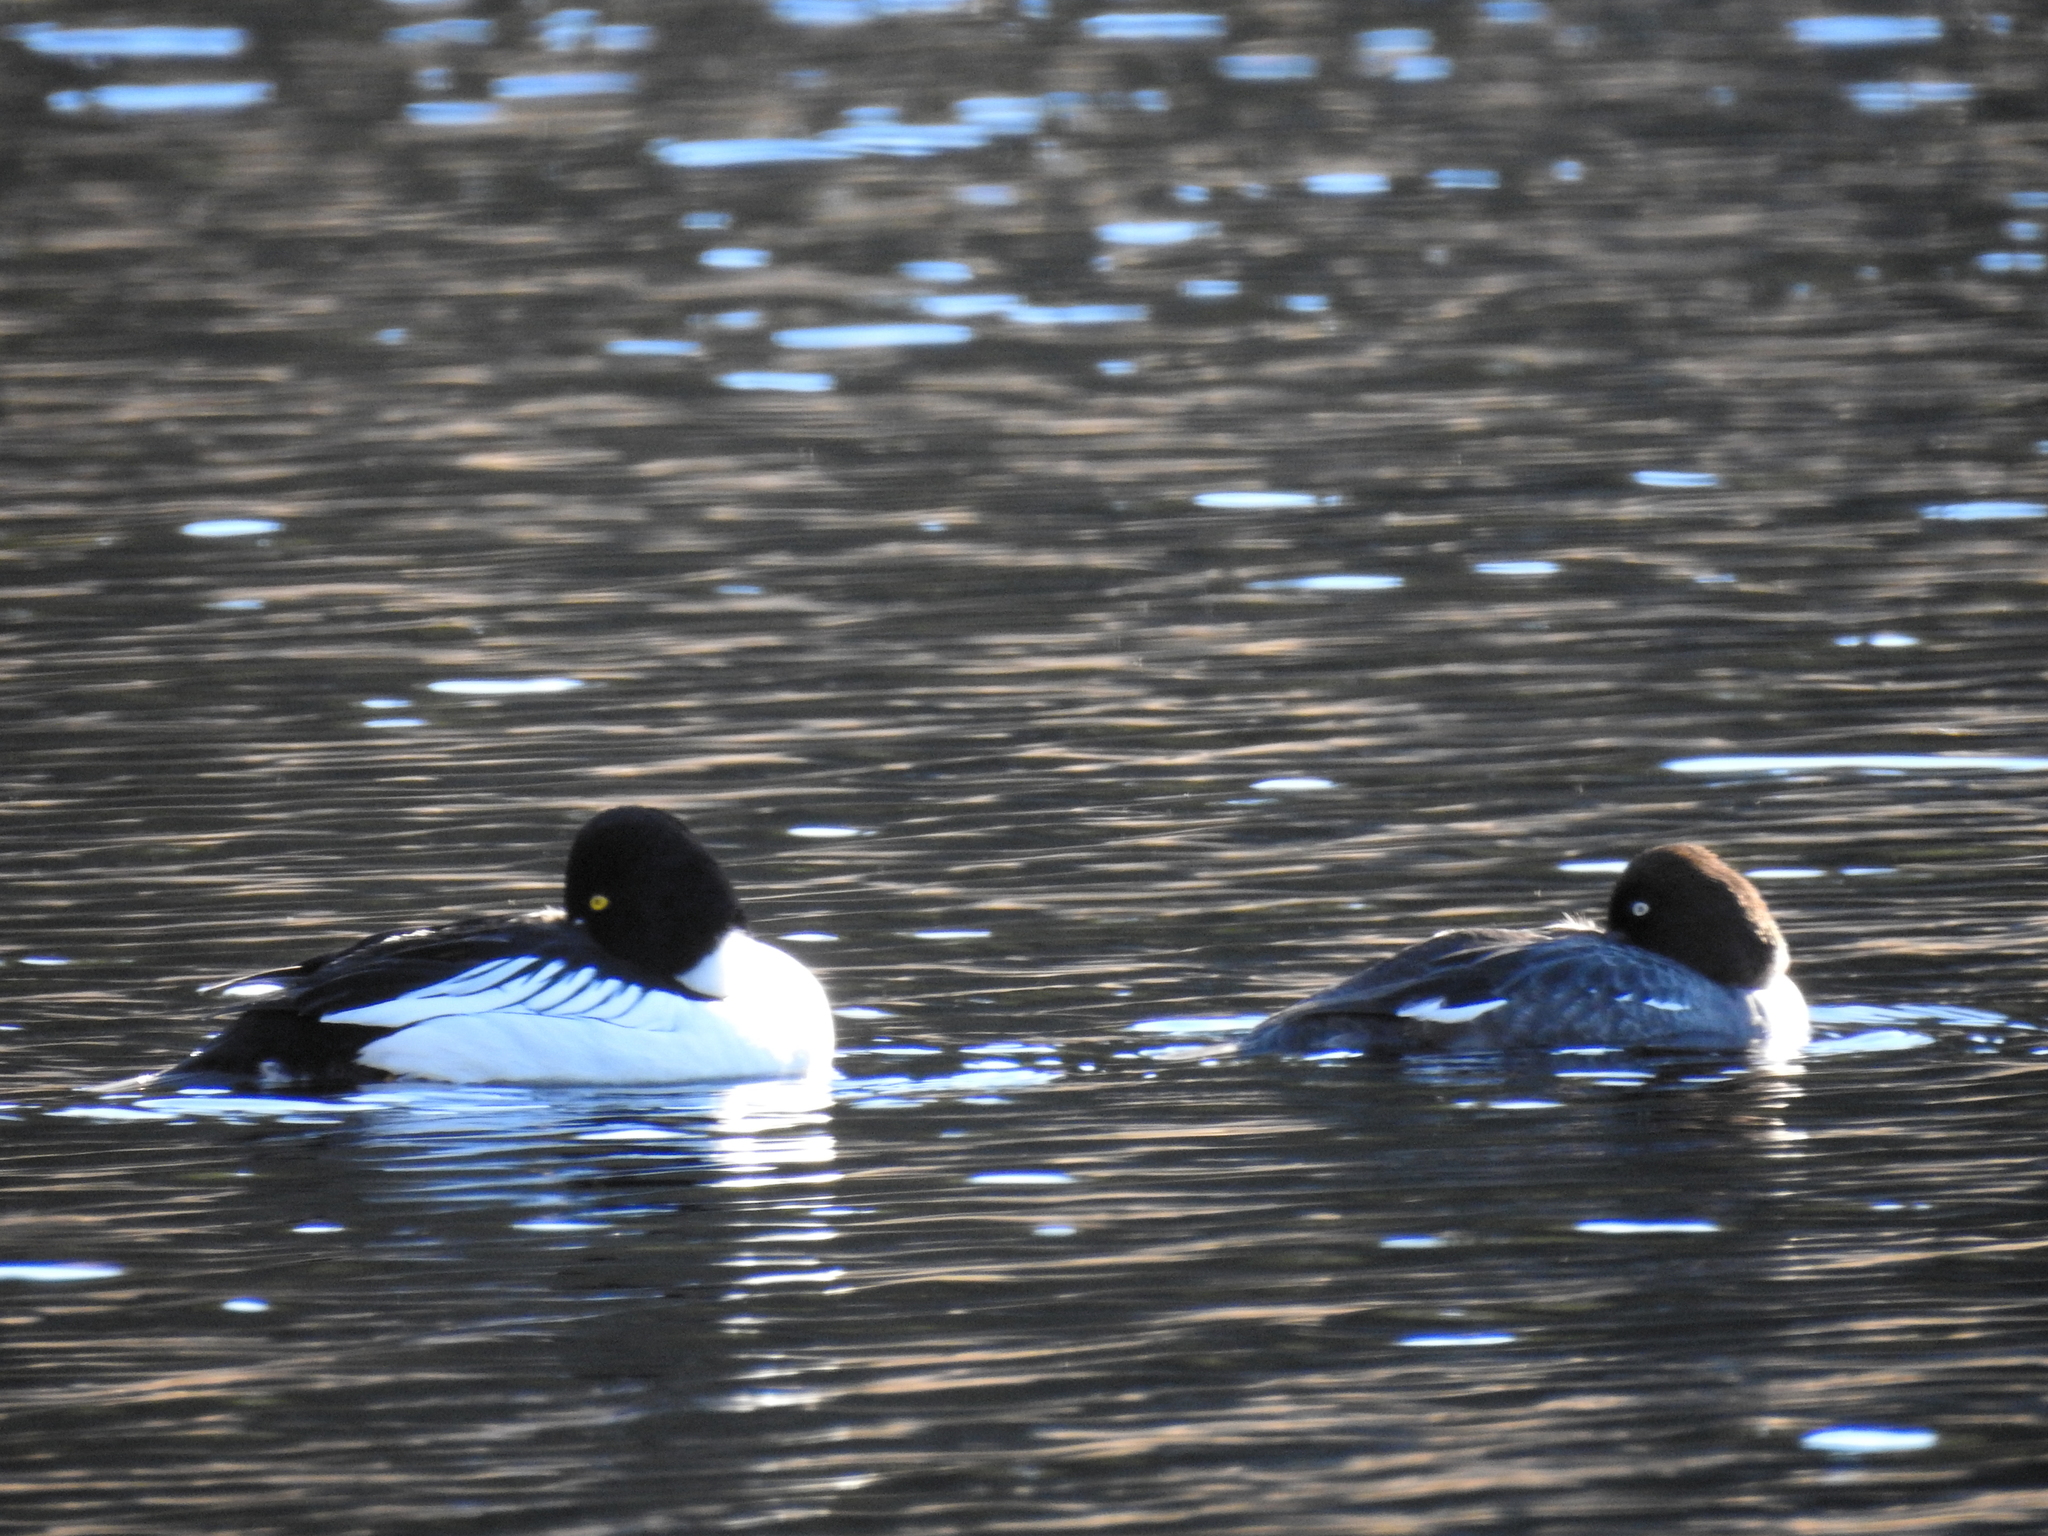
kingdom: Animalia
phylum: Chordata
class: Aves
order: Anseriformes
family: Anatidae
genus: Bucephala
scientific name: Bucephala clangula
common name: Common goldeneye
